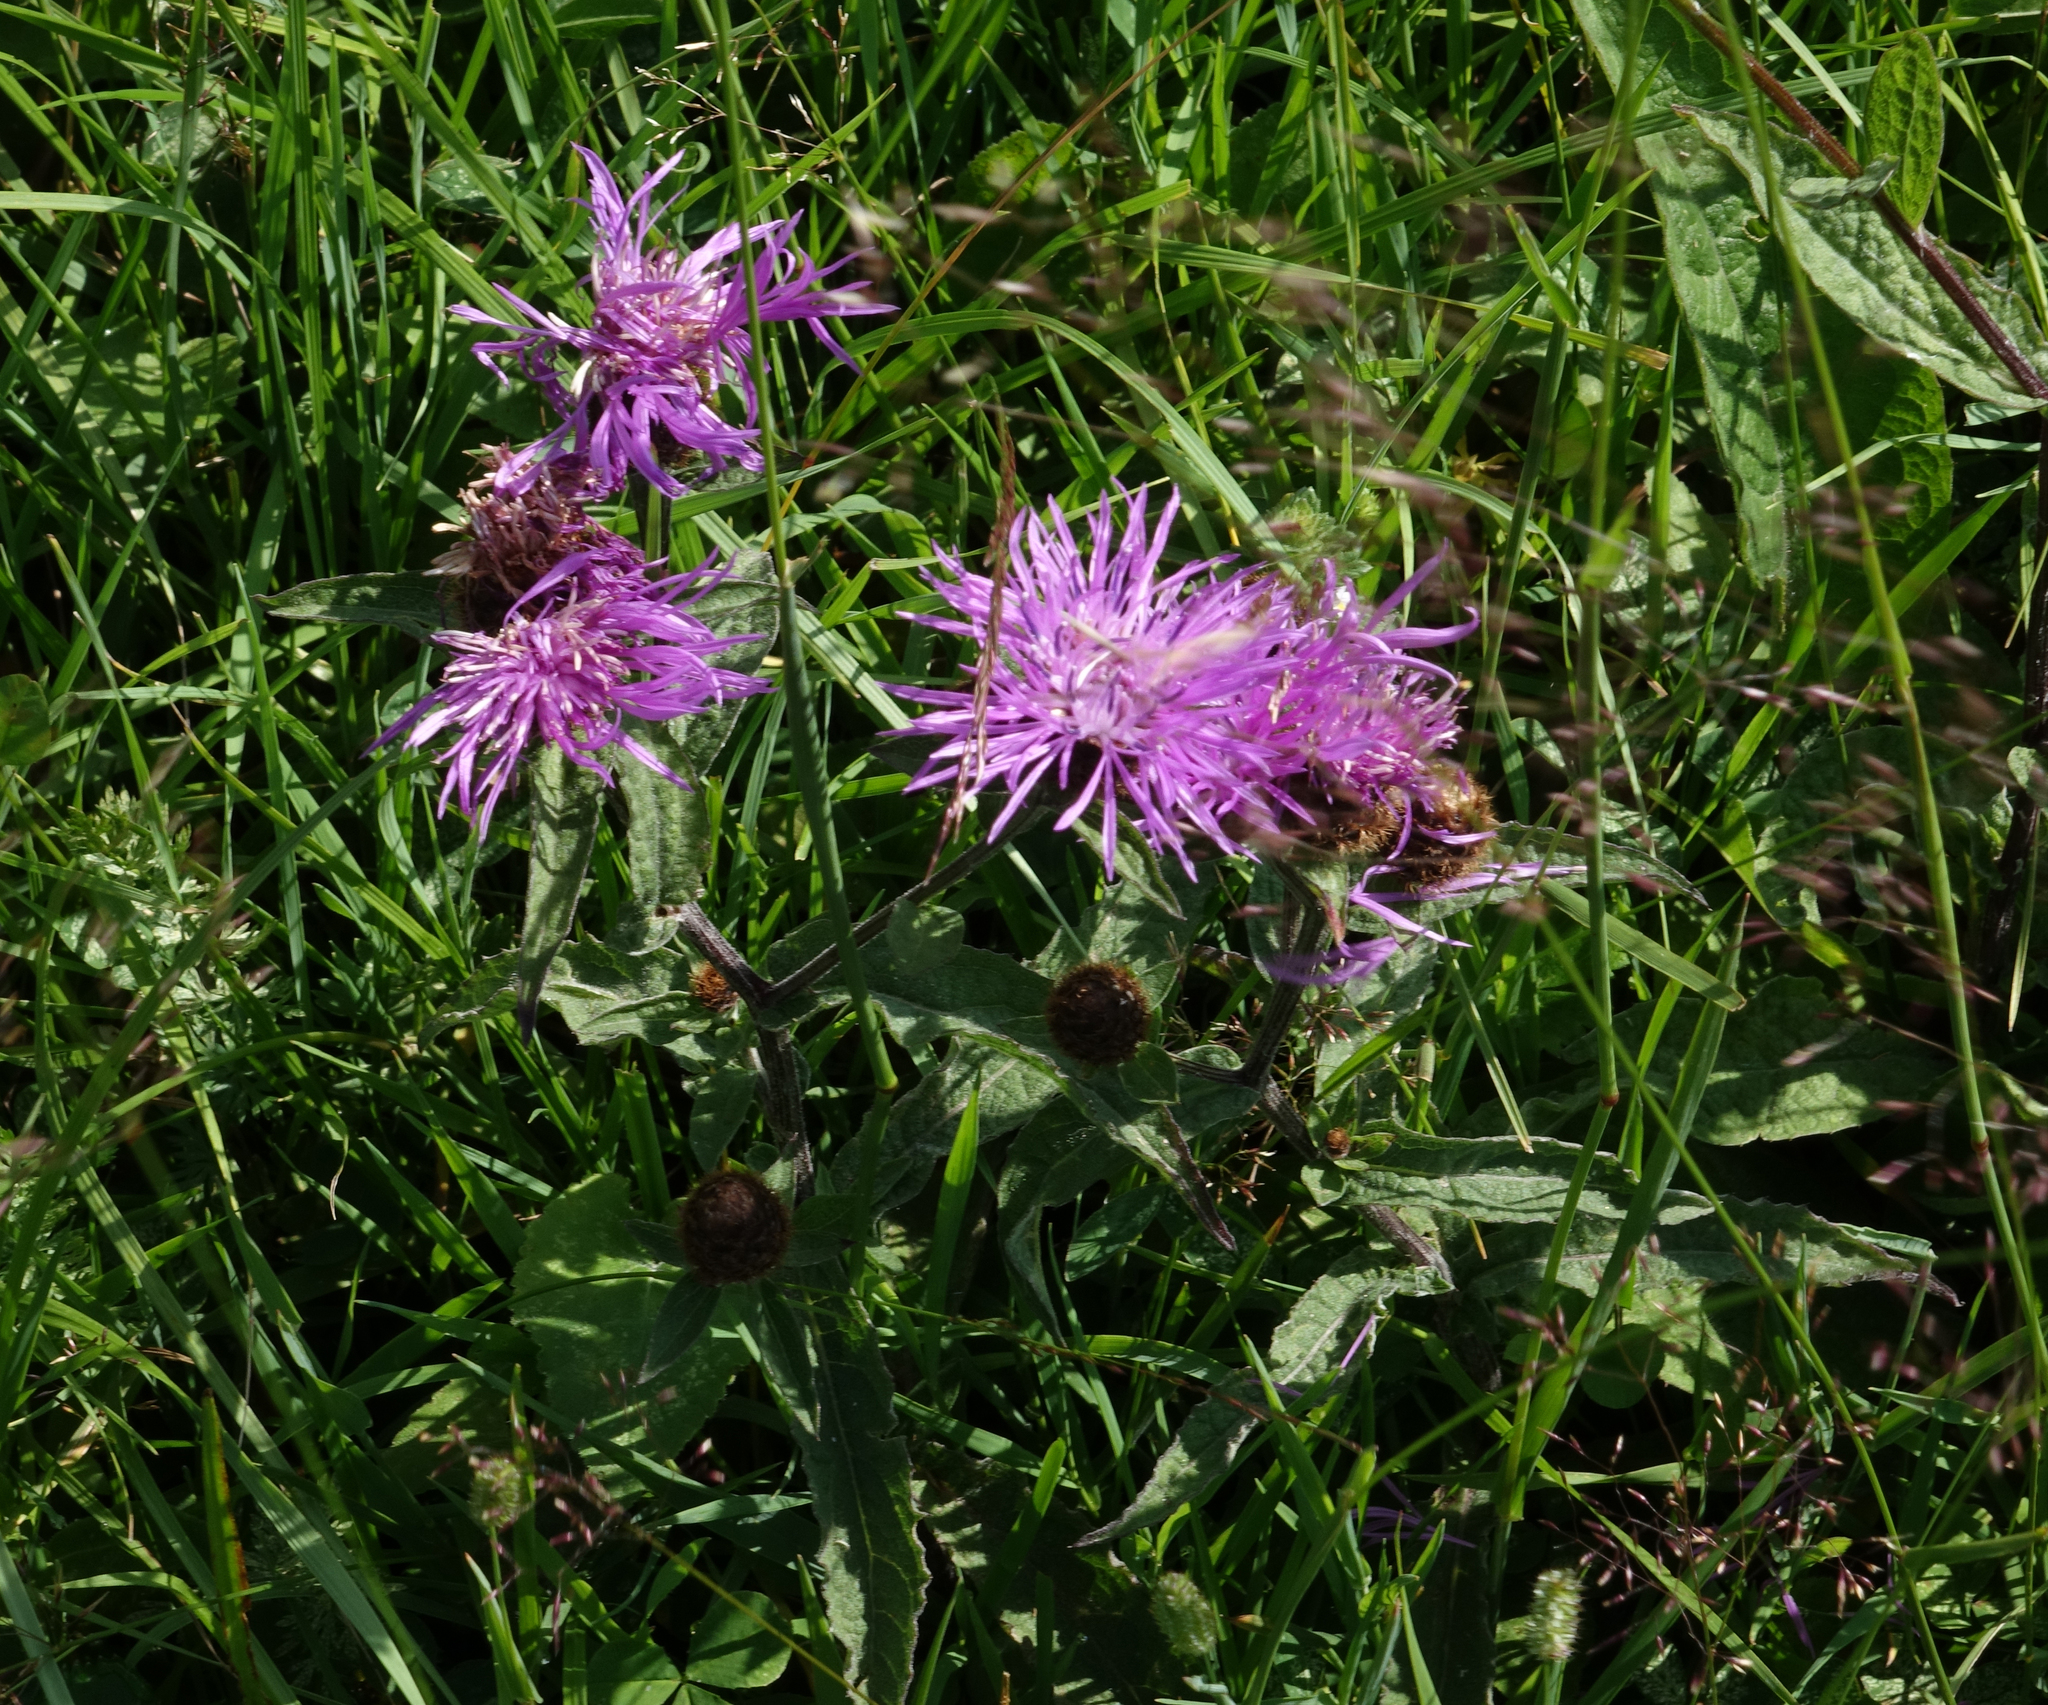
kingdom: Plantae
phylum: Tracheophyta
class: Magnoliopsida
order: Asterales
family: Asteraceae
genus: Centaurea
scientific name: Centaurea phrygia
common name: Wig knapweed
